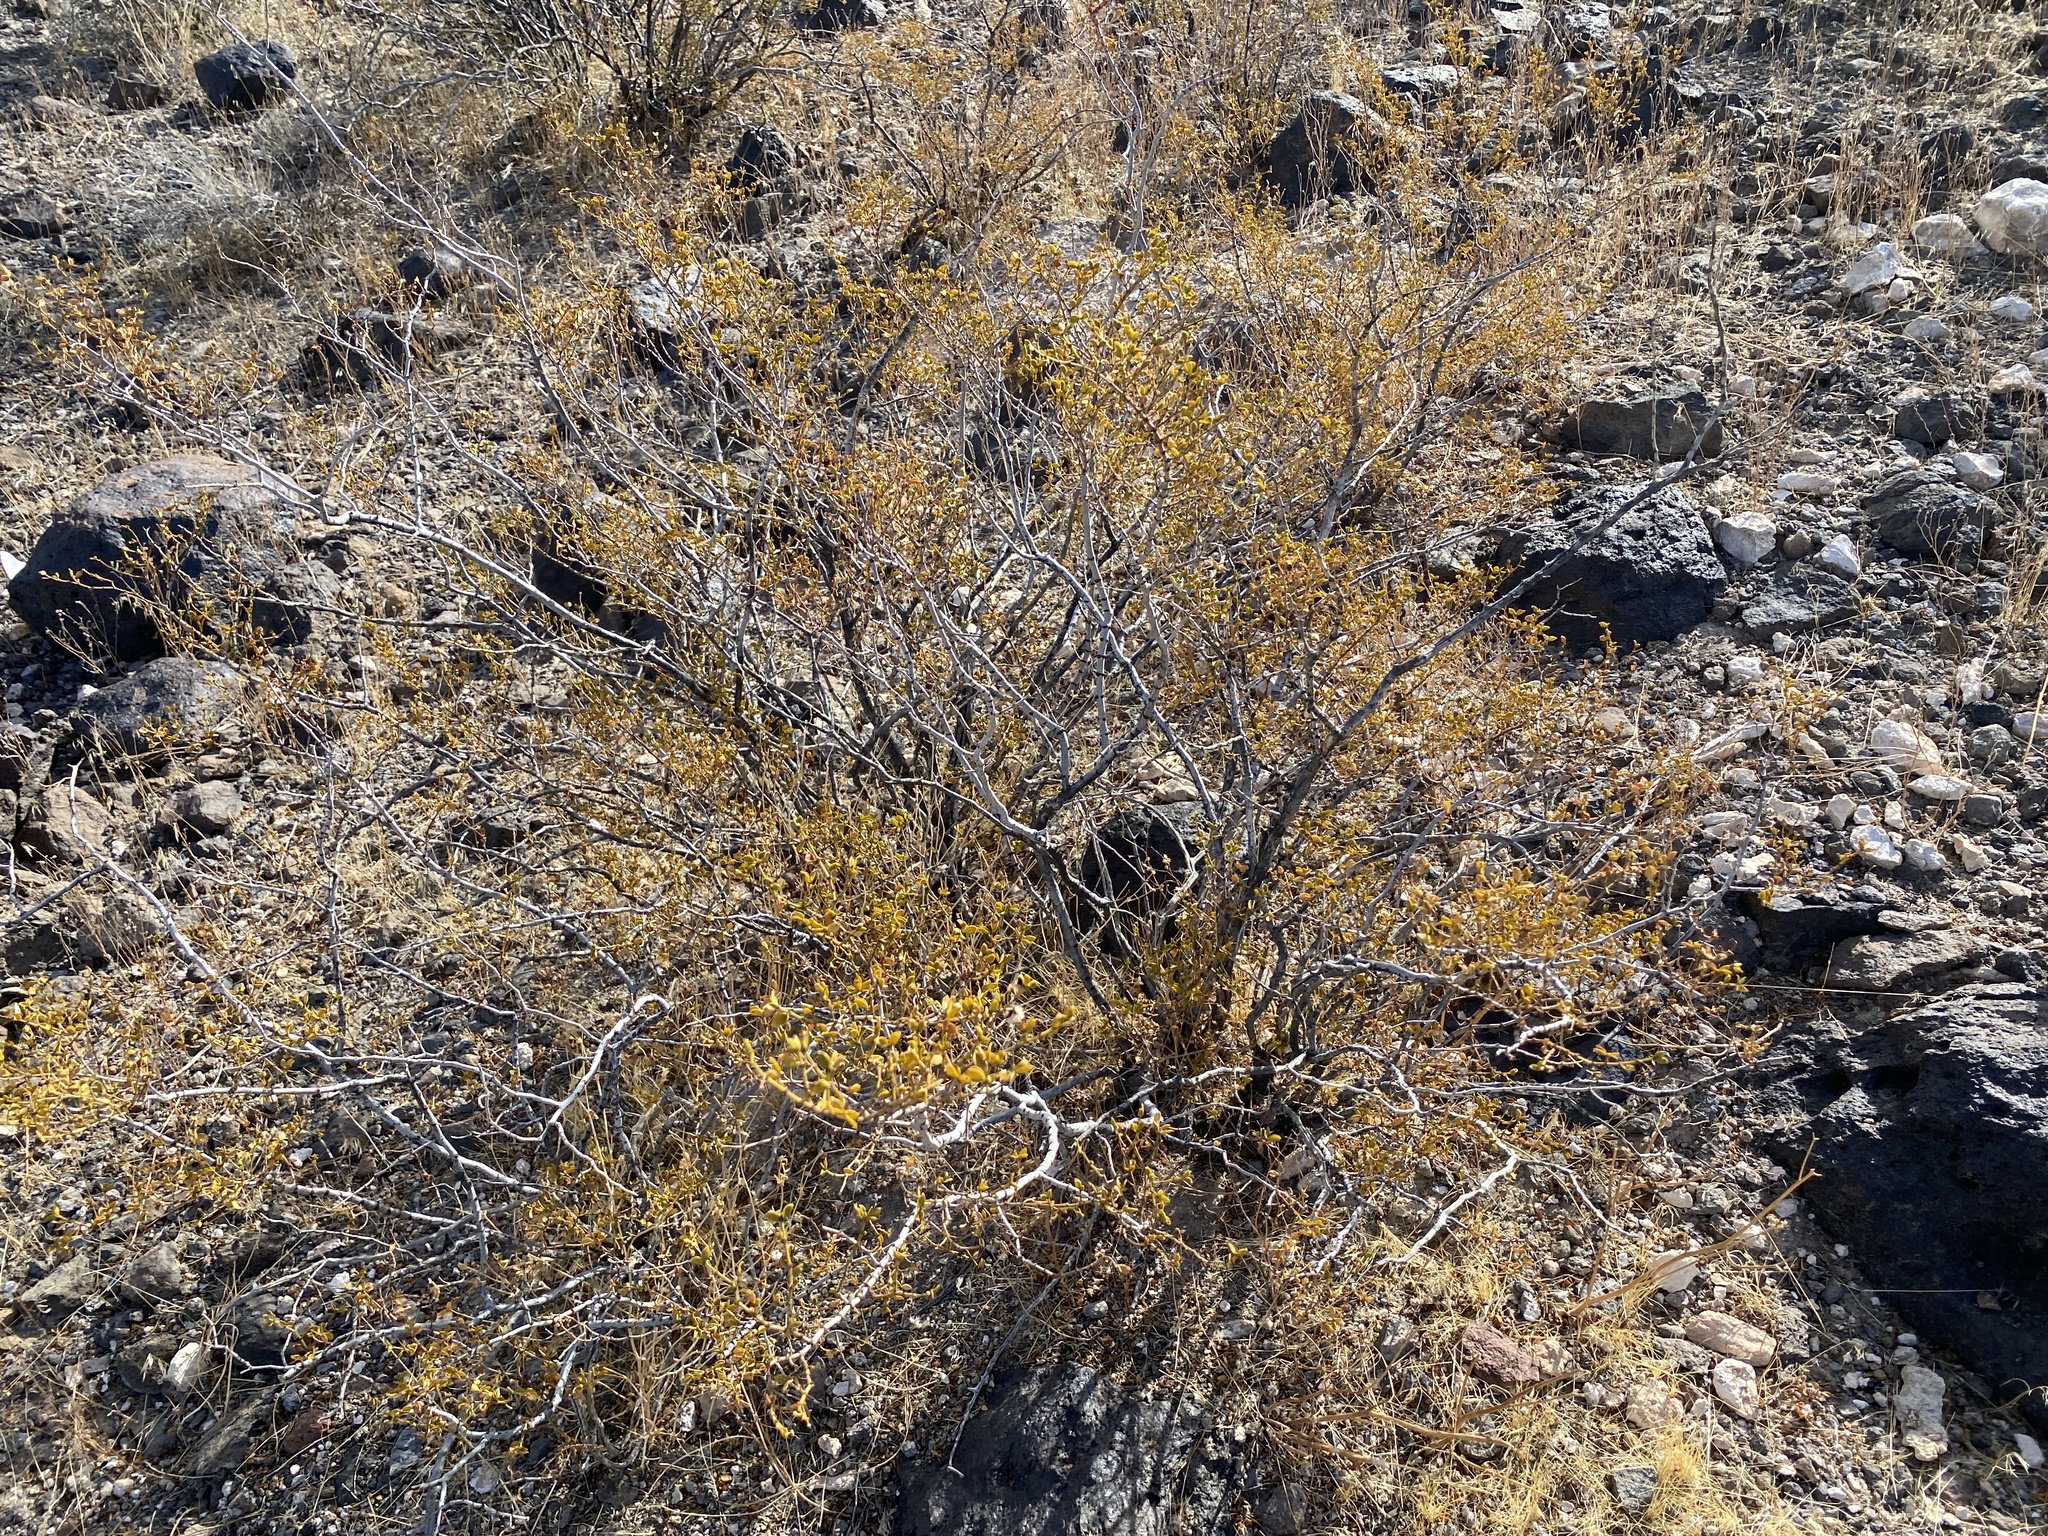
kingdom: Plantae
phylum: Tracheophyta
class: Magnoliopsida
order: Zygophyllales
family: Zygophyllaceae
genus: Larrea
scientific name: Larrea tridentata
